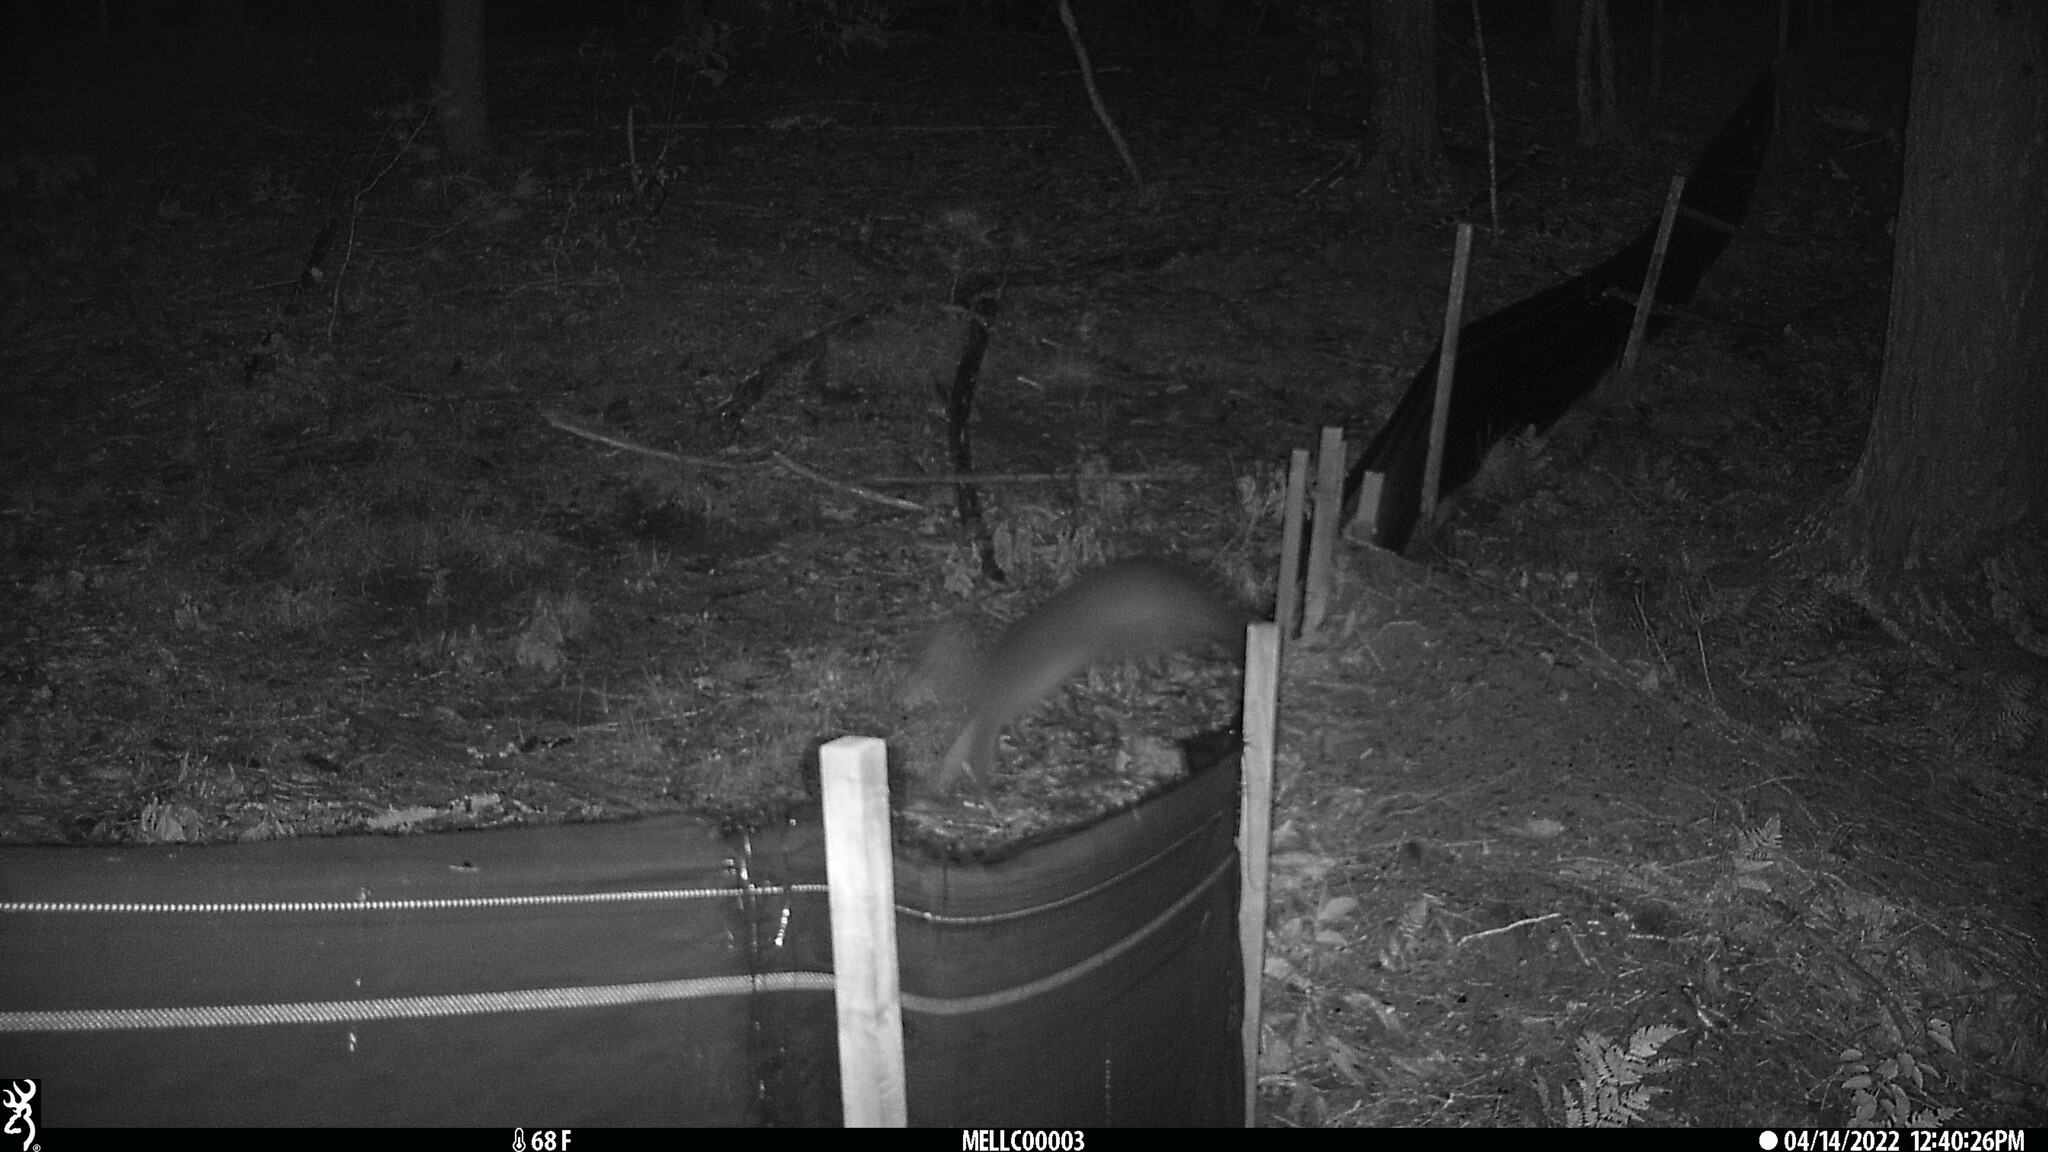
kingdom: Animalia
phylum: Chordata
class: Mammalia
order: Carnivora
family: Canidae
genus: Urocyon
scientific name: Urocyon cinereoargenteus
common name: Gray fox
